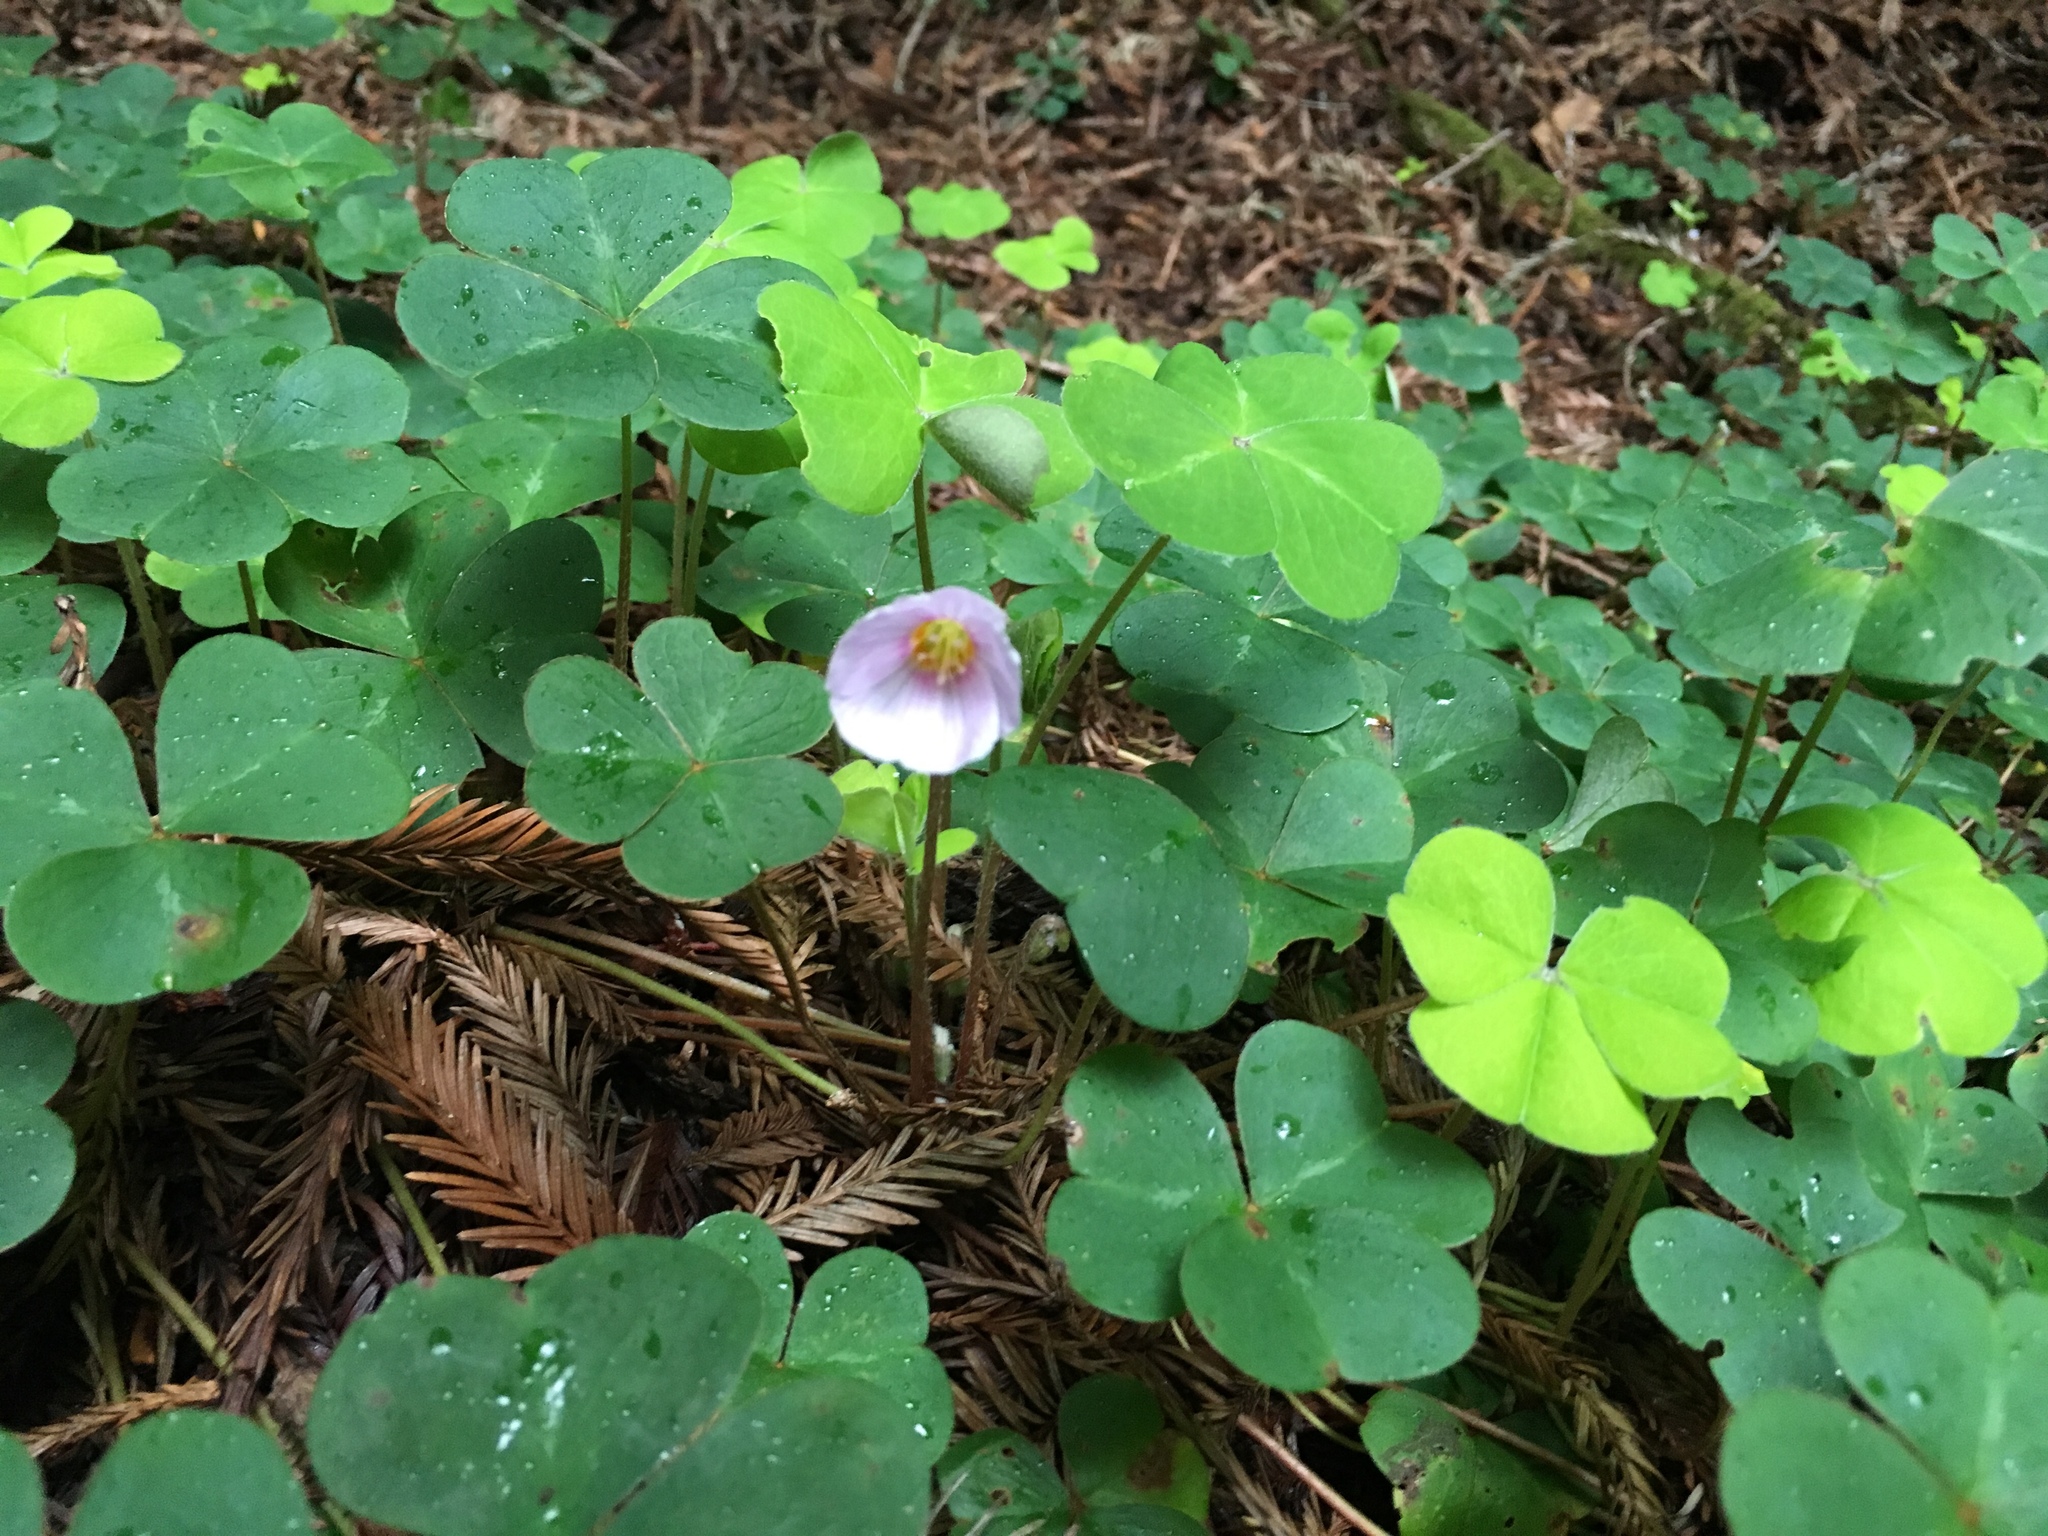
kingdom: Plantae
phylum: Tracheophyta
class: Magnoliopsida
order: Oxalidales
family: Oxalidaceae
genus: Oxalis
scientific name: Oxalis oregana
